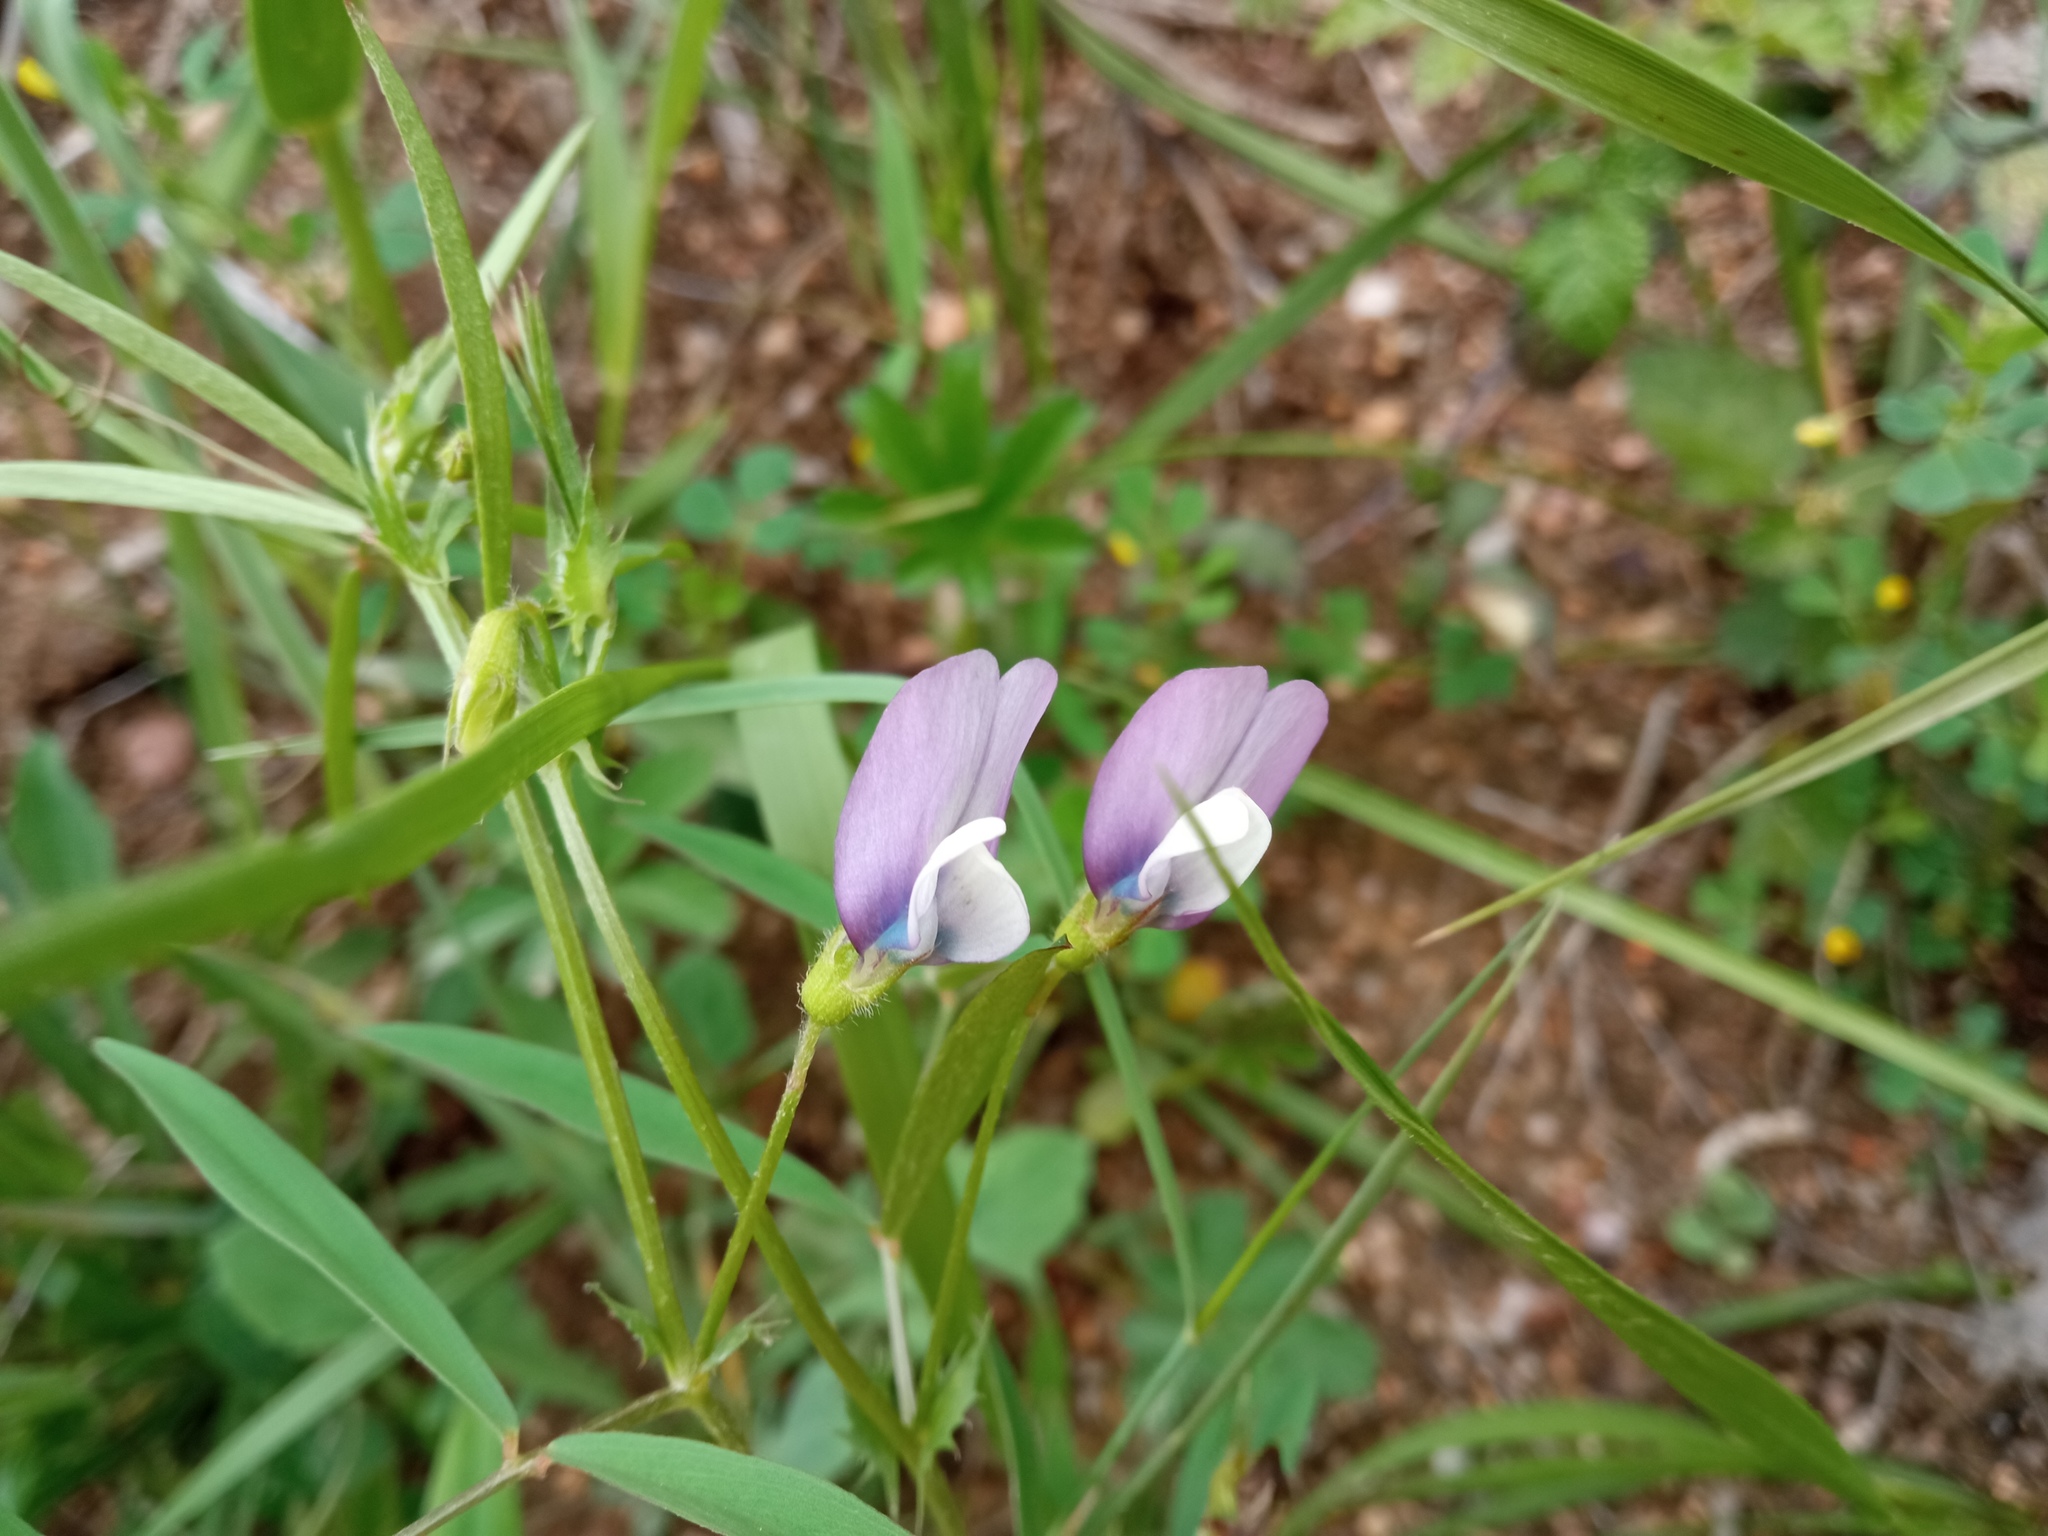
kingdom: Plantae
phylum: Tracheophyta
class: Magnoliopsida
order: Fabales
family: Fabaceae
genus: Vicia
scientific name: Vicia bithynica
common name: Bithynian vetch
